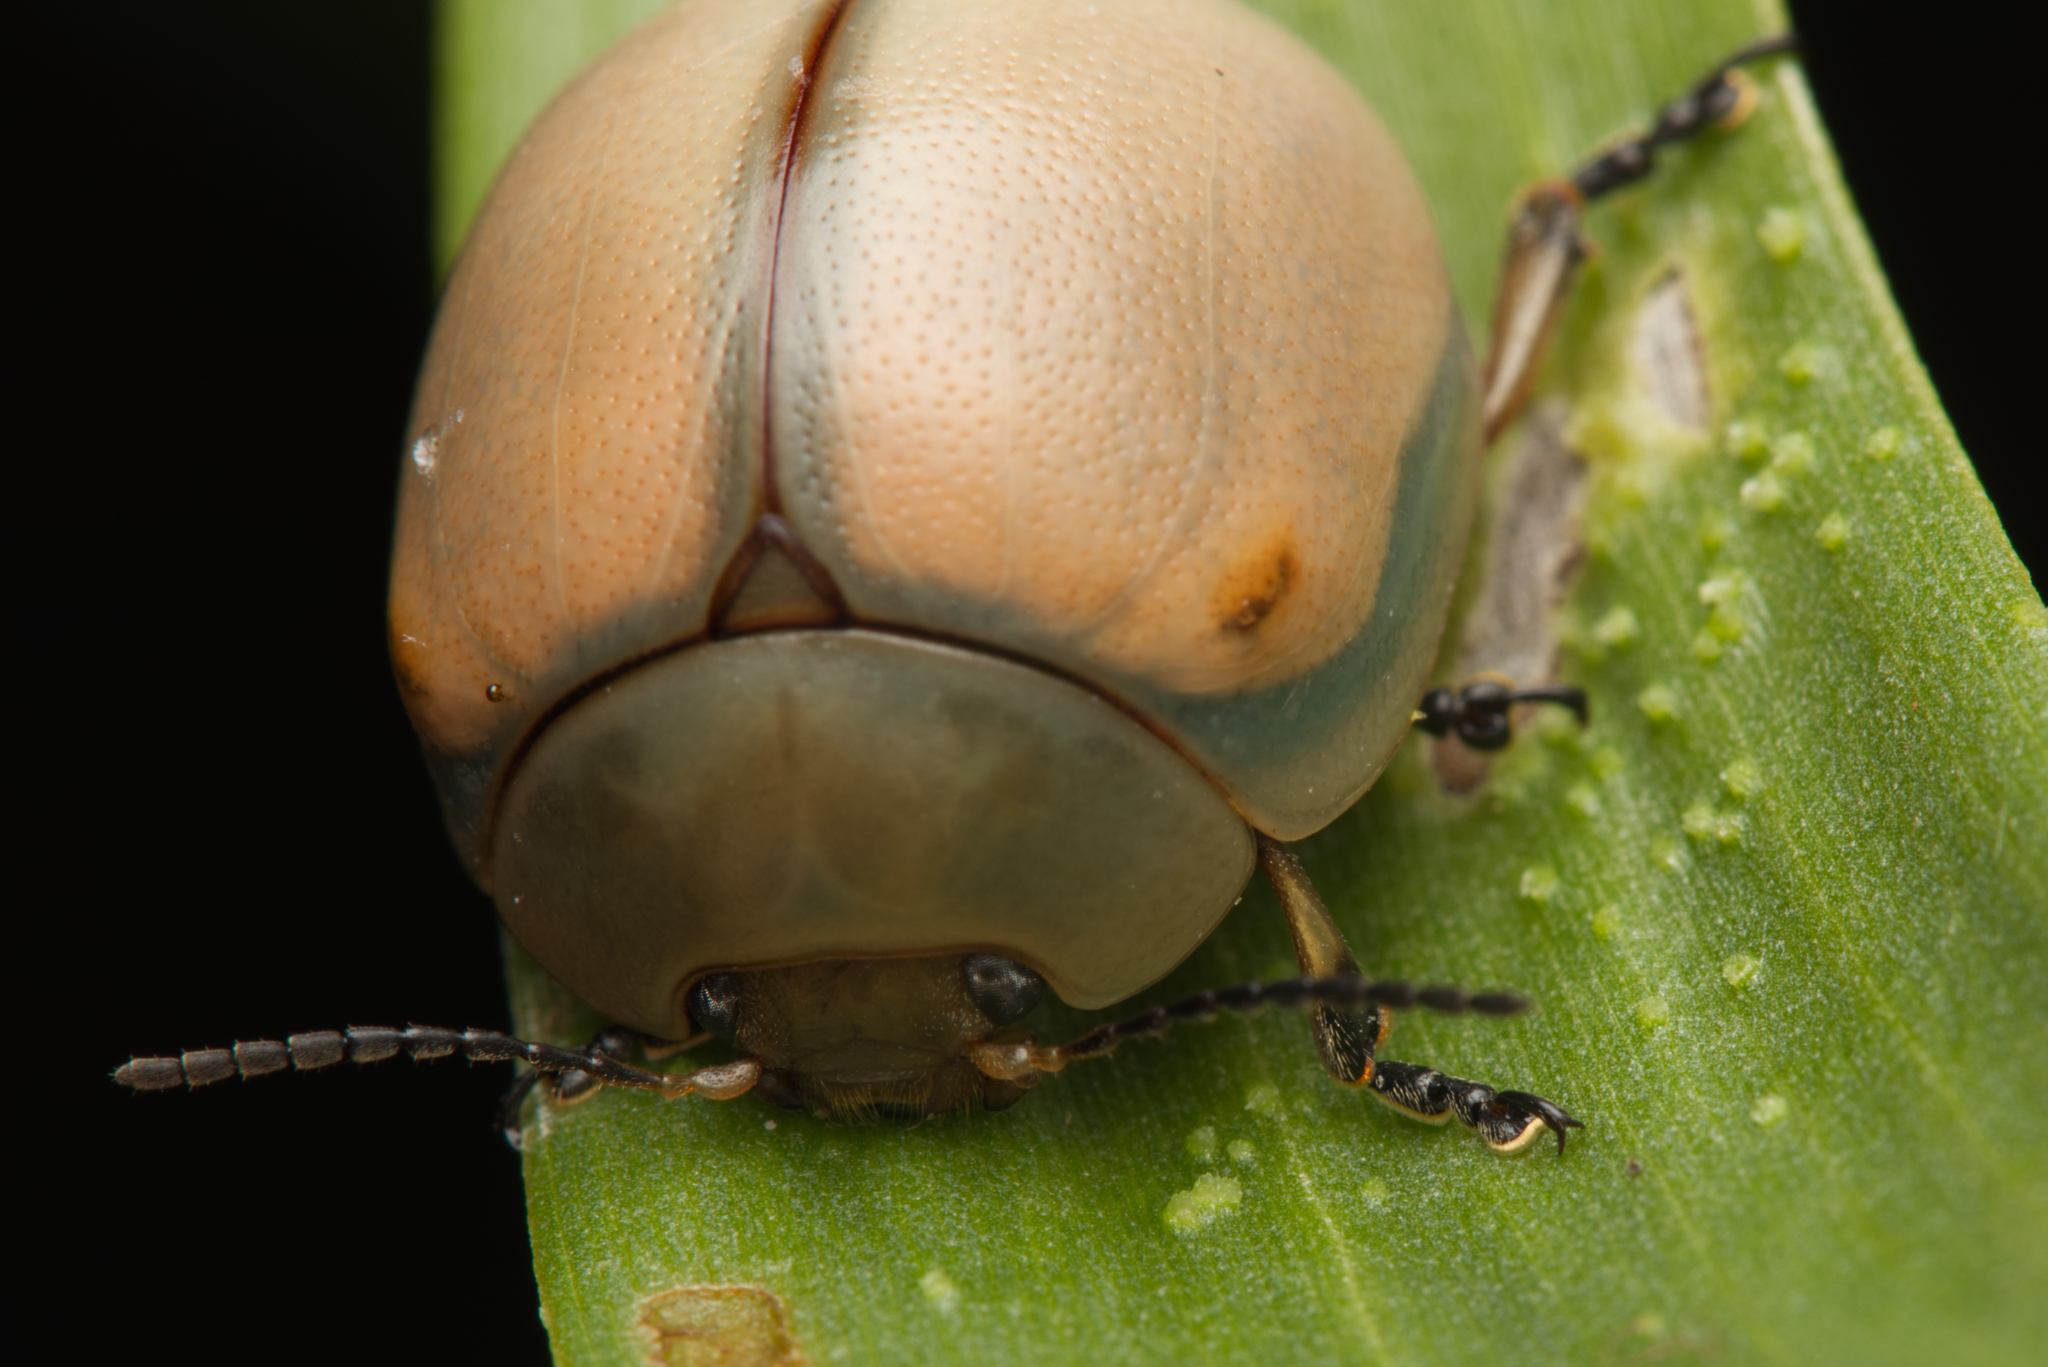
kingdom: Animalia
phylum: Arthropoda
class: Insecta
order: Coleoptera
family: Chrysomelidae
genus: Dicranosterna
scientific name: Dicranosterna
